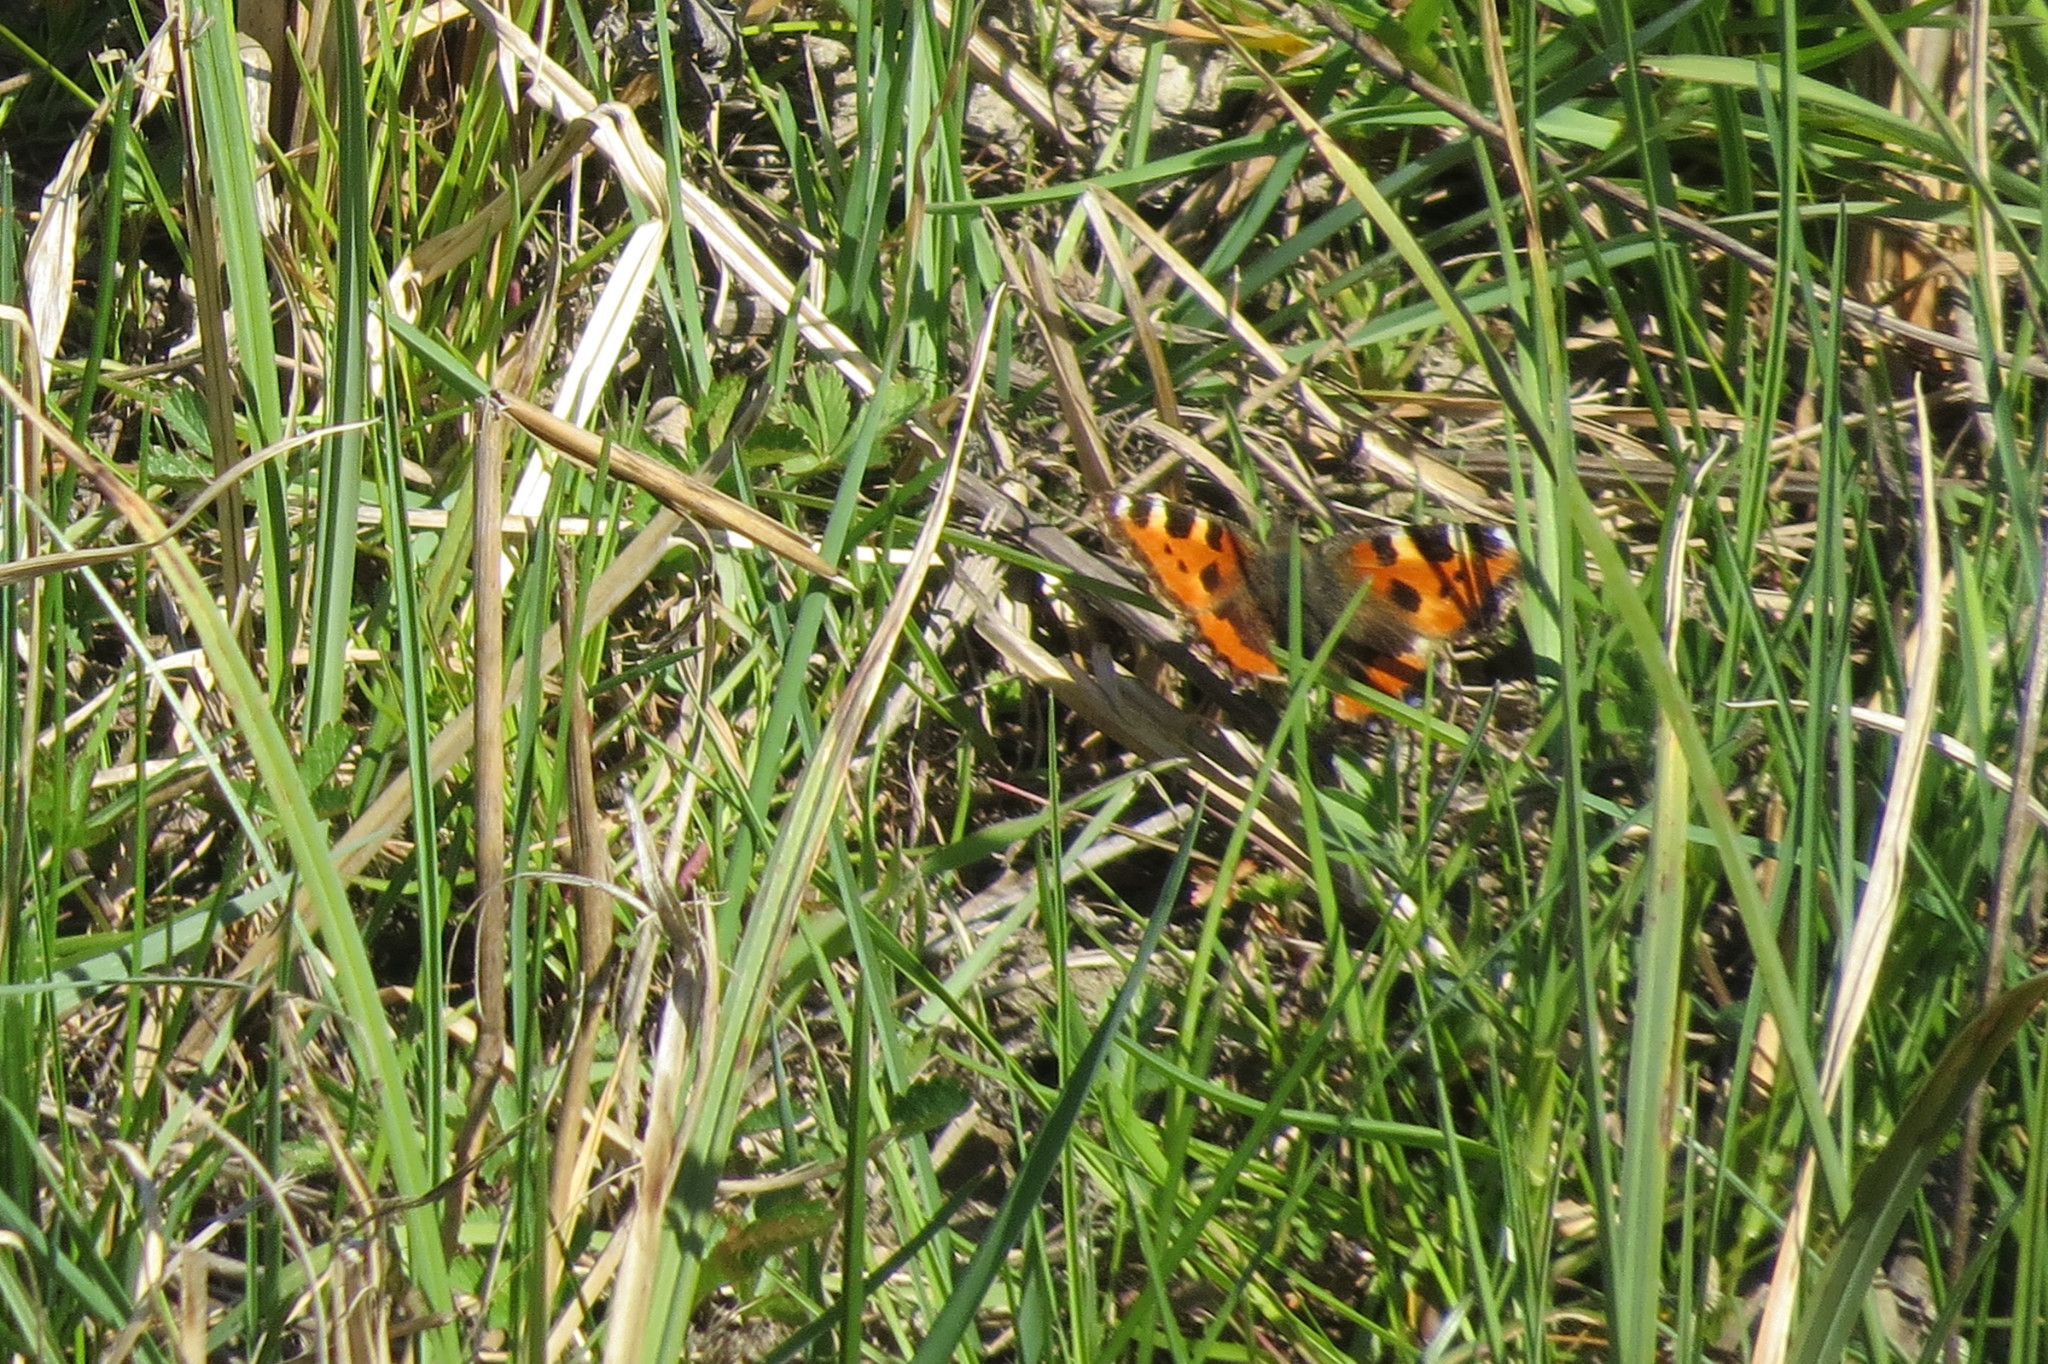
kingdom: Animalia
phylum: Arthropoda
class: Insecta
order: Lepidoptera
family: Nymphalidae
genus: Aglais
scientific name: Aglais urticae
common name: Small tortoiseshell
